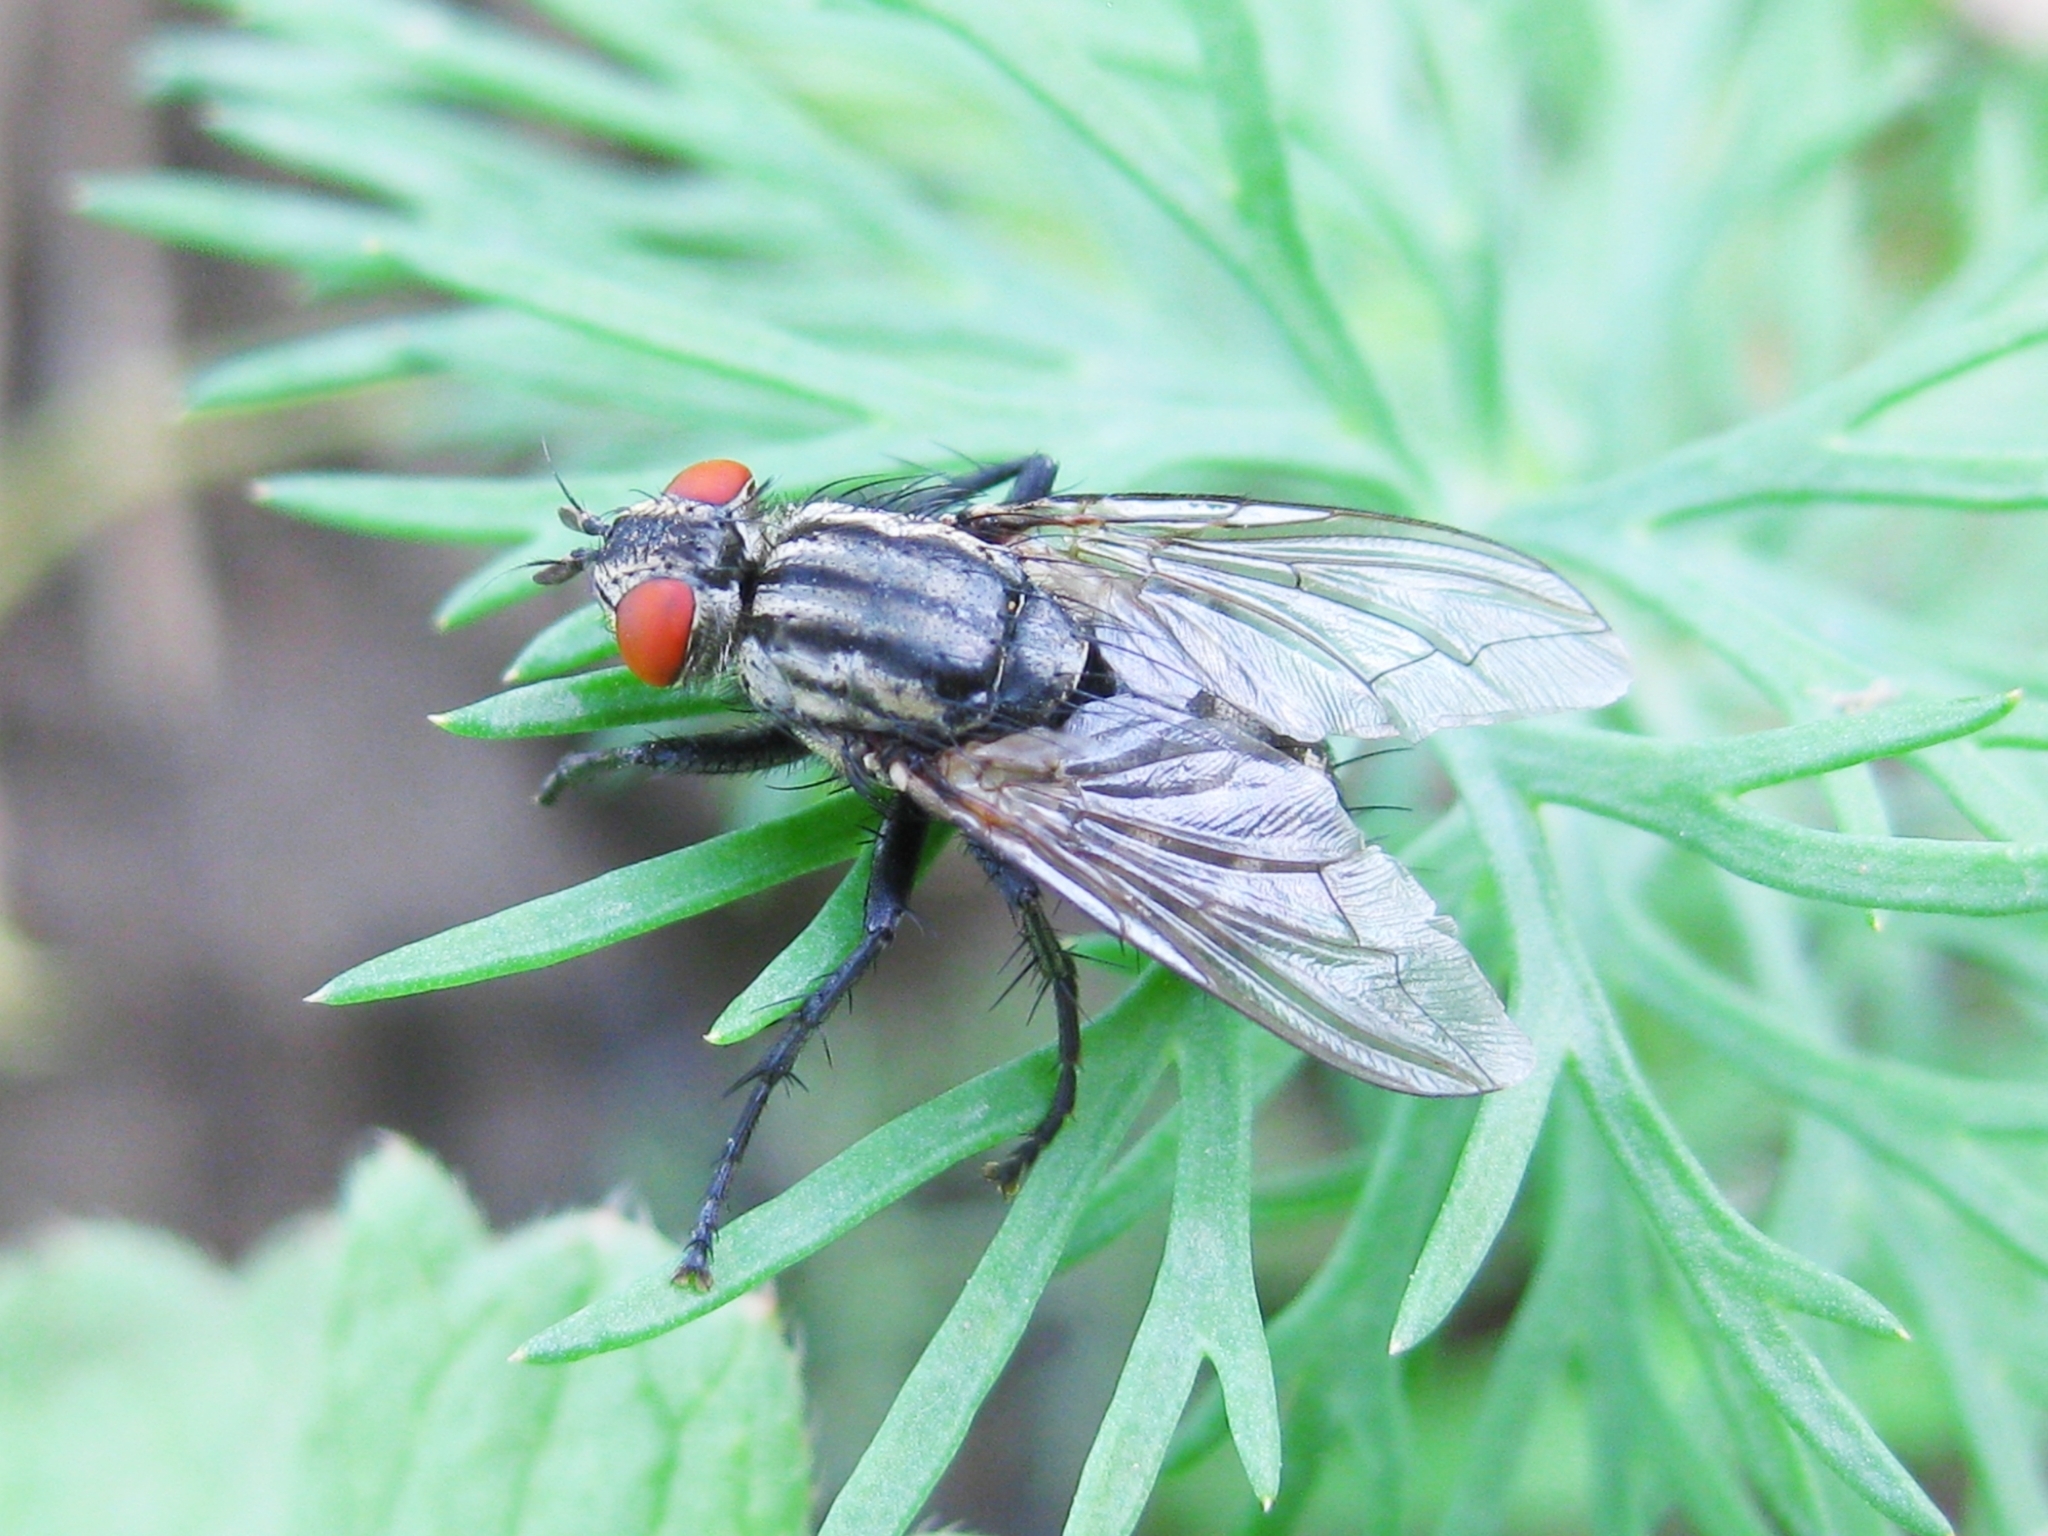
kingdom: Animalia
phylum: Arthropoda
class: Insecta
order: Diptera
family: Sarcophagidae
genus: Sarcophaga
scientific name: Sarcophaga
